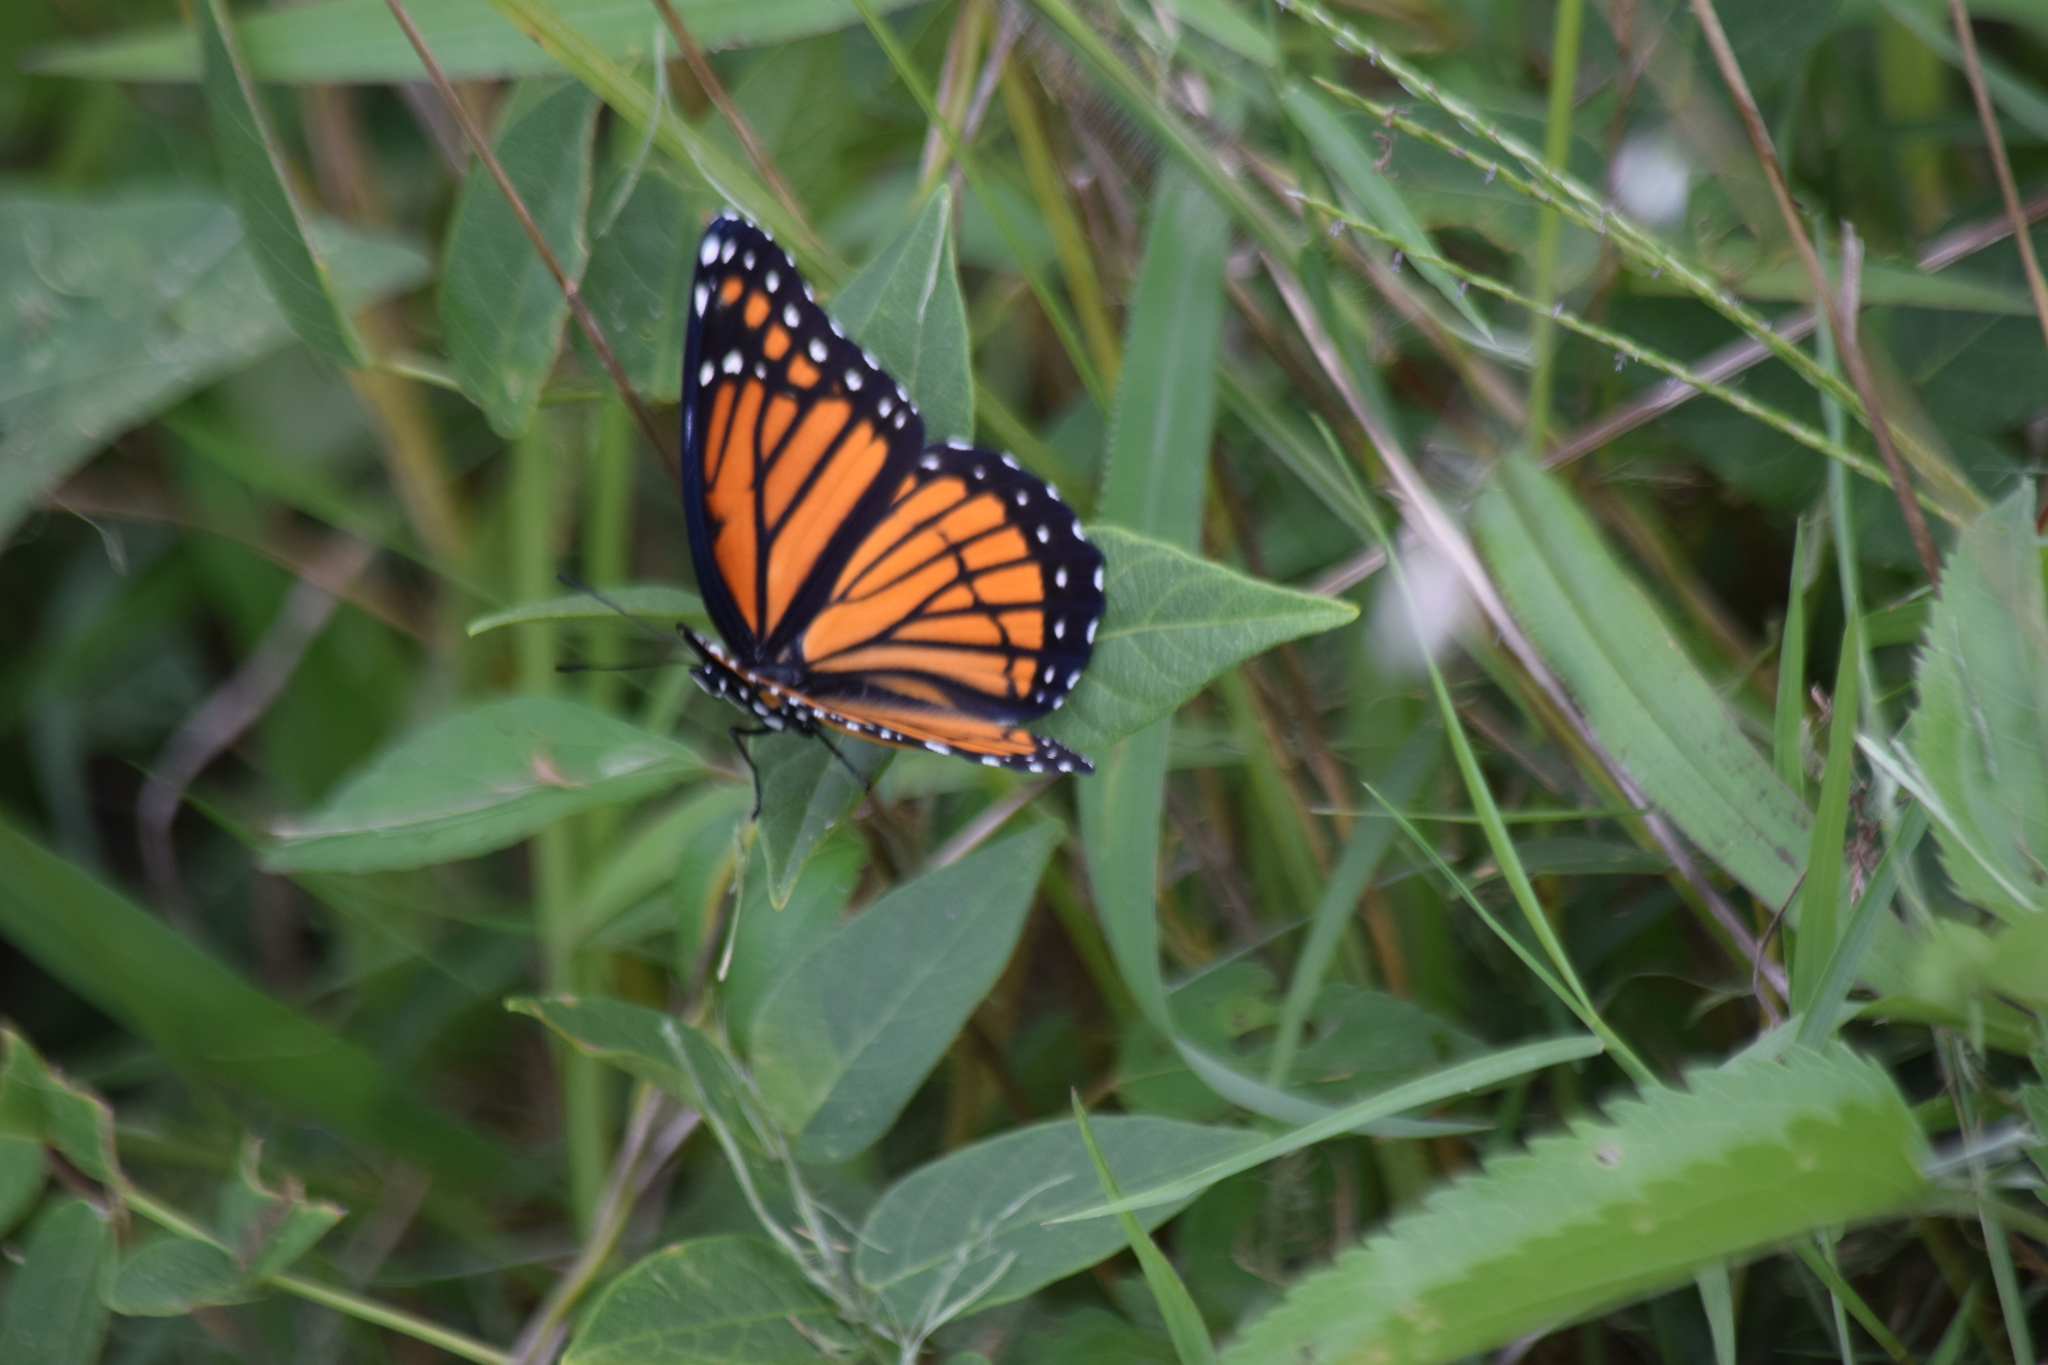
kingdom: Animalia
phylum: Arthropoda
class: Insecta
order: Lepidoptera
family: Nymphalidae
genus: Limenitis
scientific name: Limenitis archippus
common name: Viceroy
